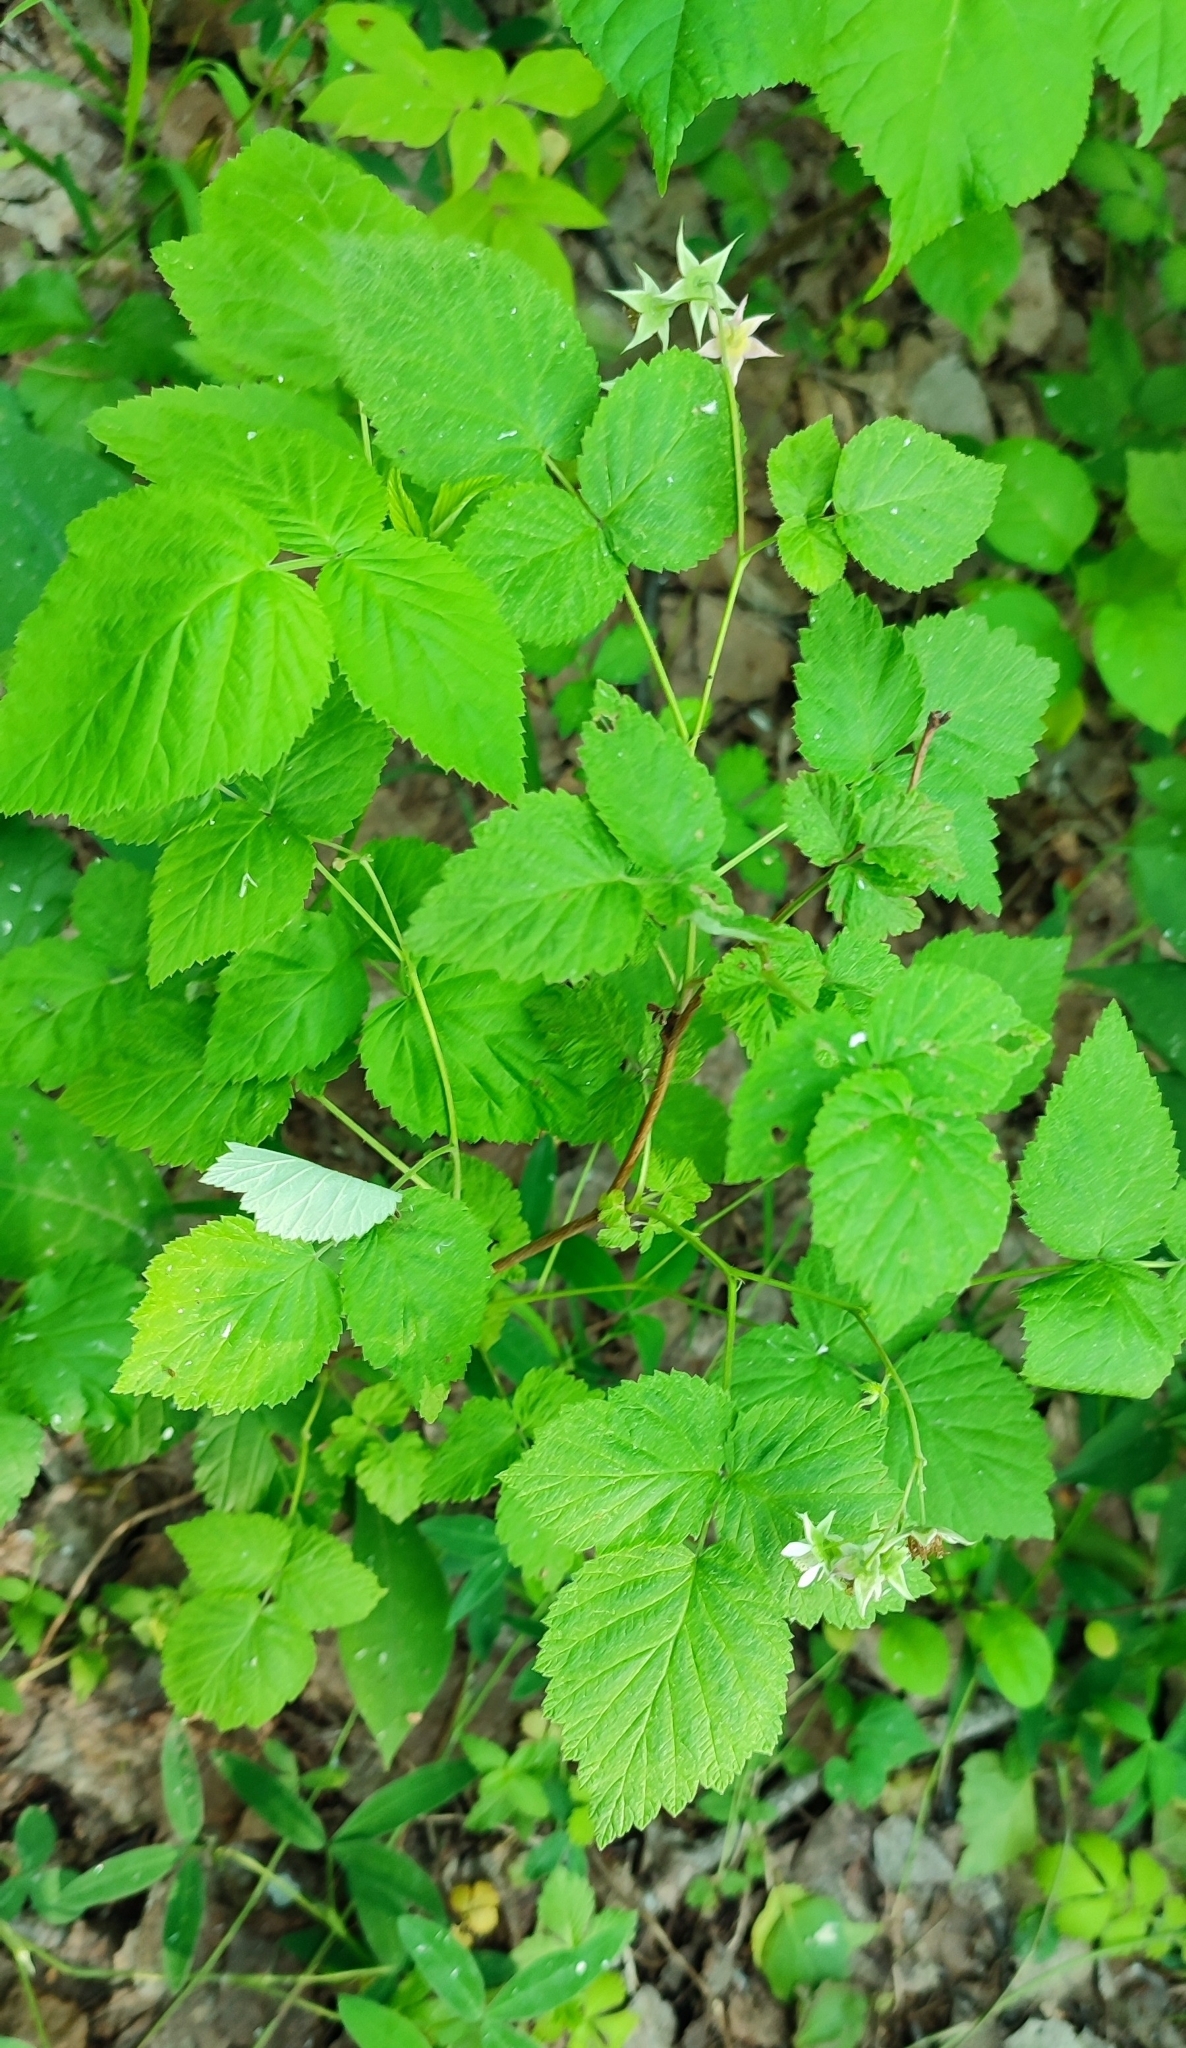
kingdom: Plantae
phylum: Tracheophyta
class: Magnoliopsida
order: Rosales
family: Rosaceae
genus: Rubus
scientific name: Rubus idaeus
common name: Raspberry
